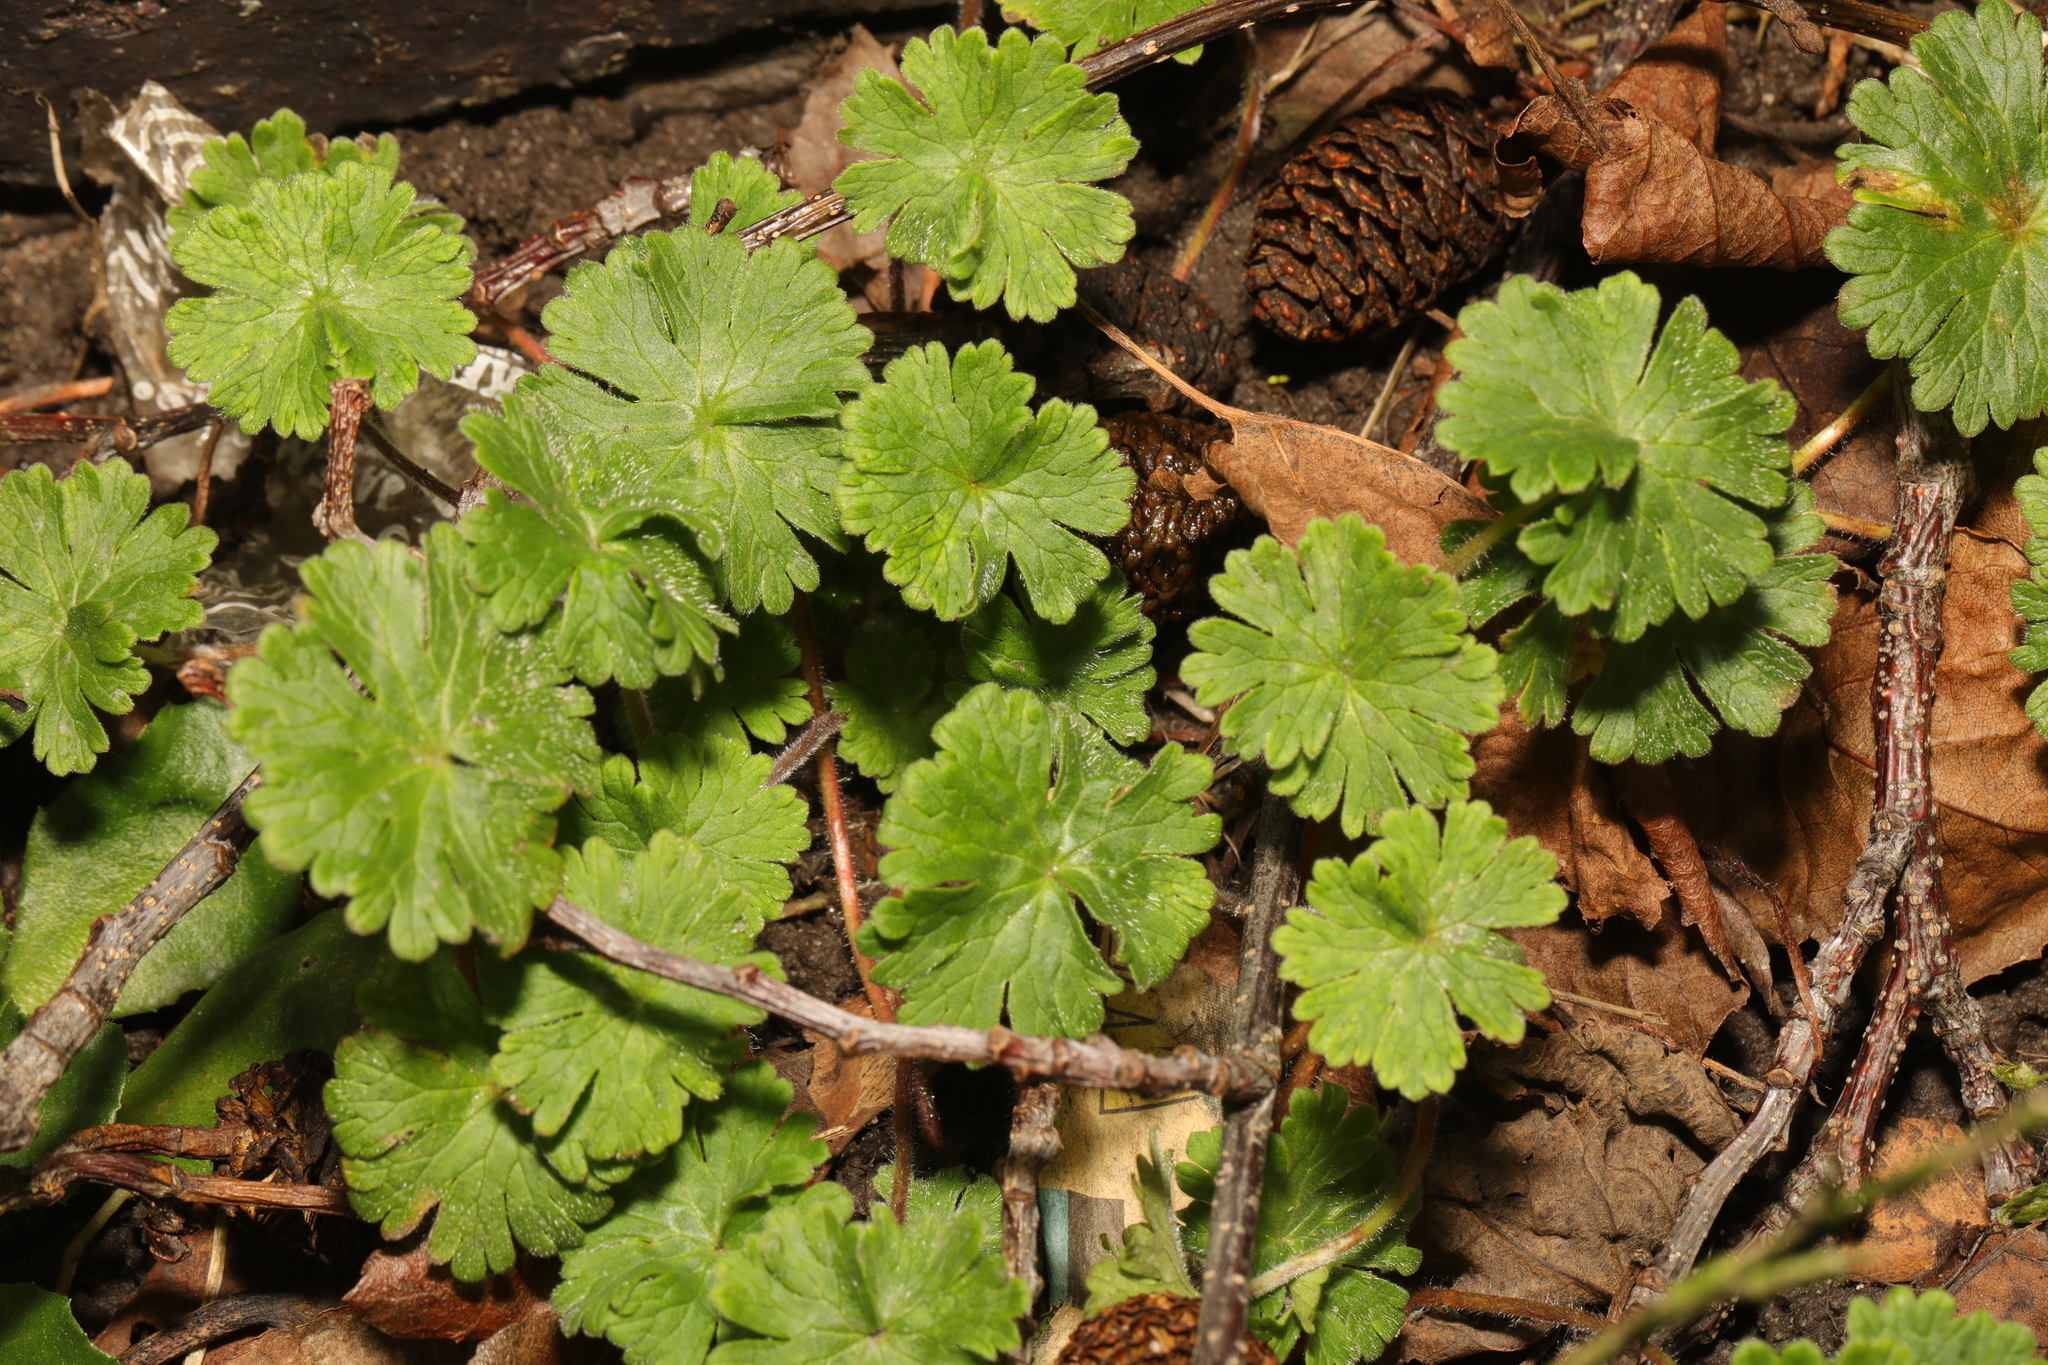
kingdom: Plantae
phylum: Tracheophyta
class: Magnoliopsida
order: Geraniales
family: Geraniaceae
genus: Geranium
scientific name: Geranium molle
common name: Dove's-foot crane's-bill
